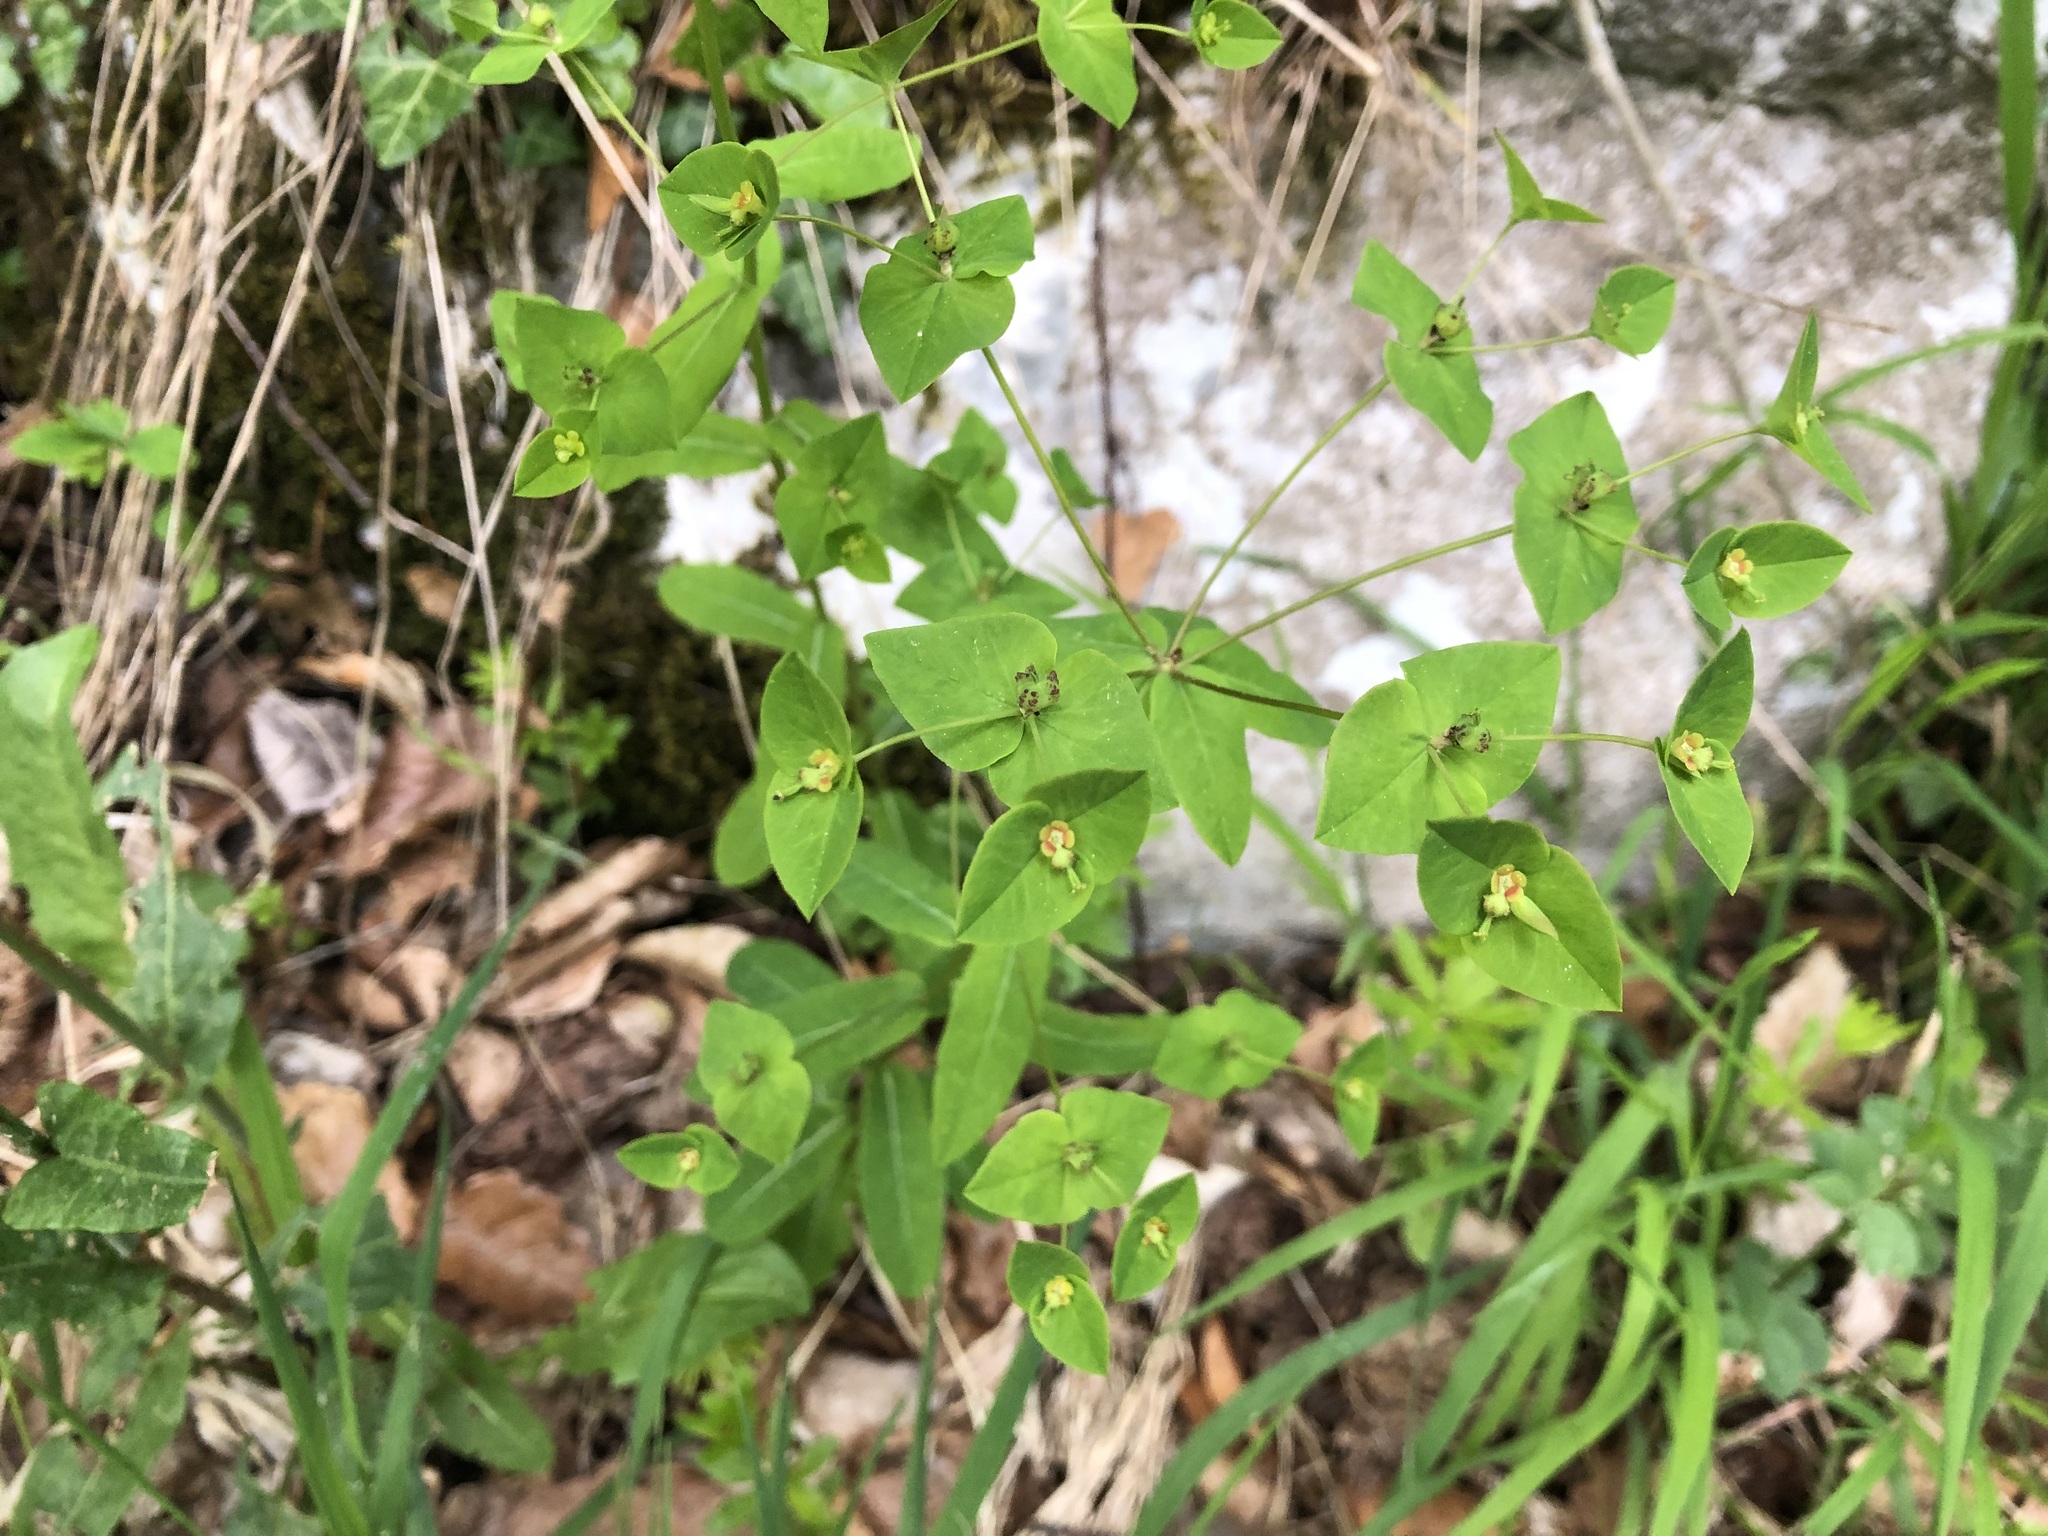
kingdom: Plantae
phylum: Tracheophyta
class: Magnoliopsida
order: Malpighiales
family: Euphorbiaceae
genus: Euphorbia
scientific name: Euphorbia dulcis
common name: Sweet spurge
